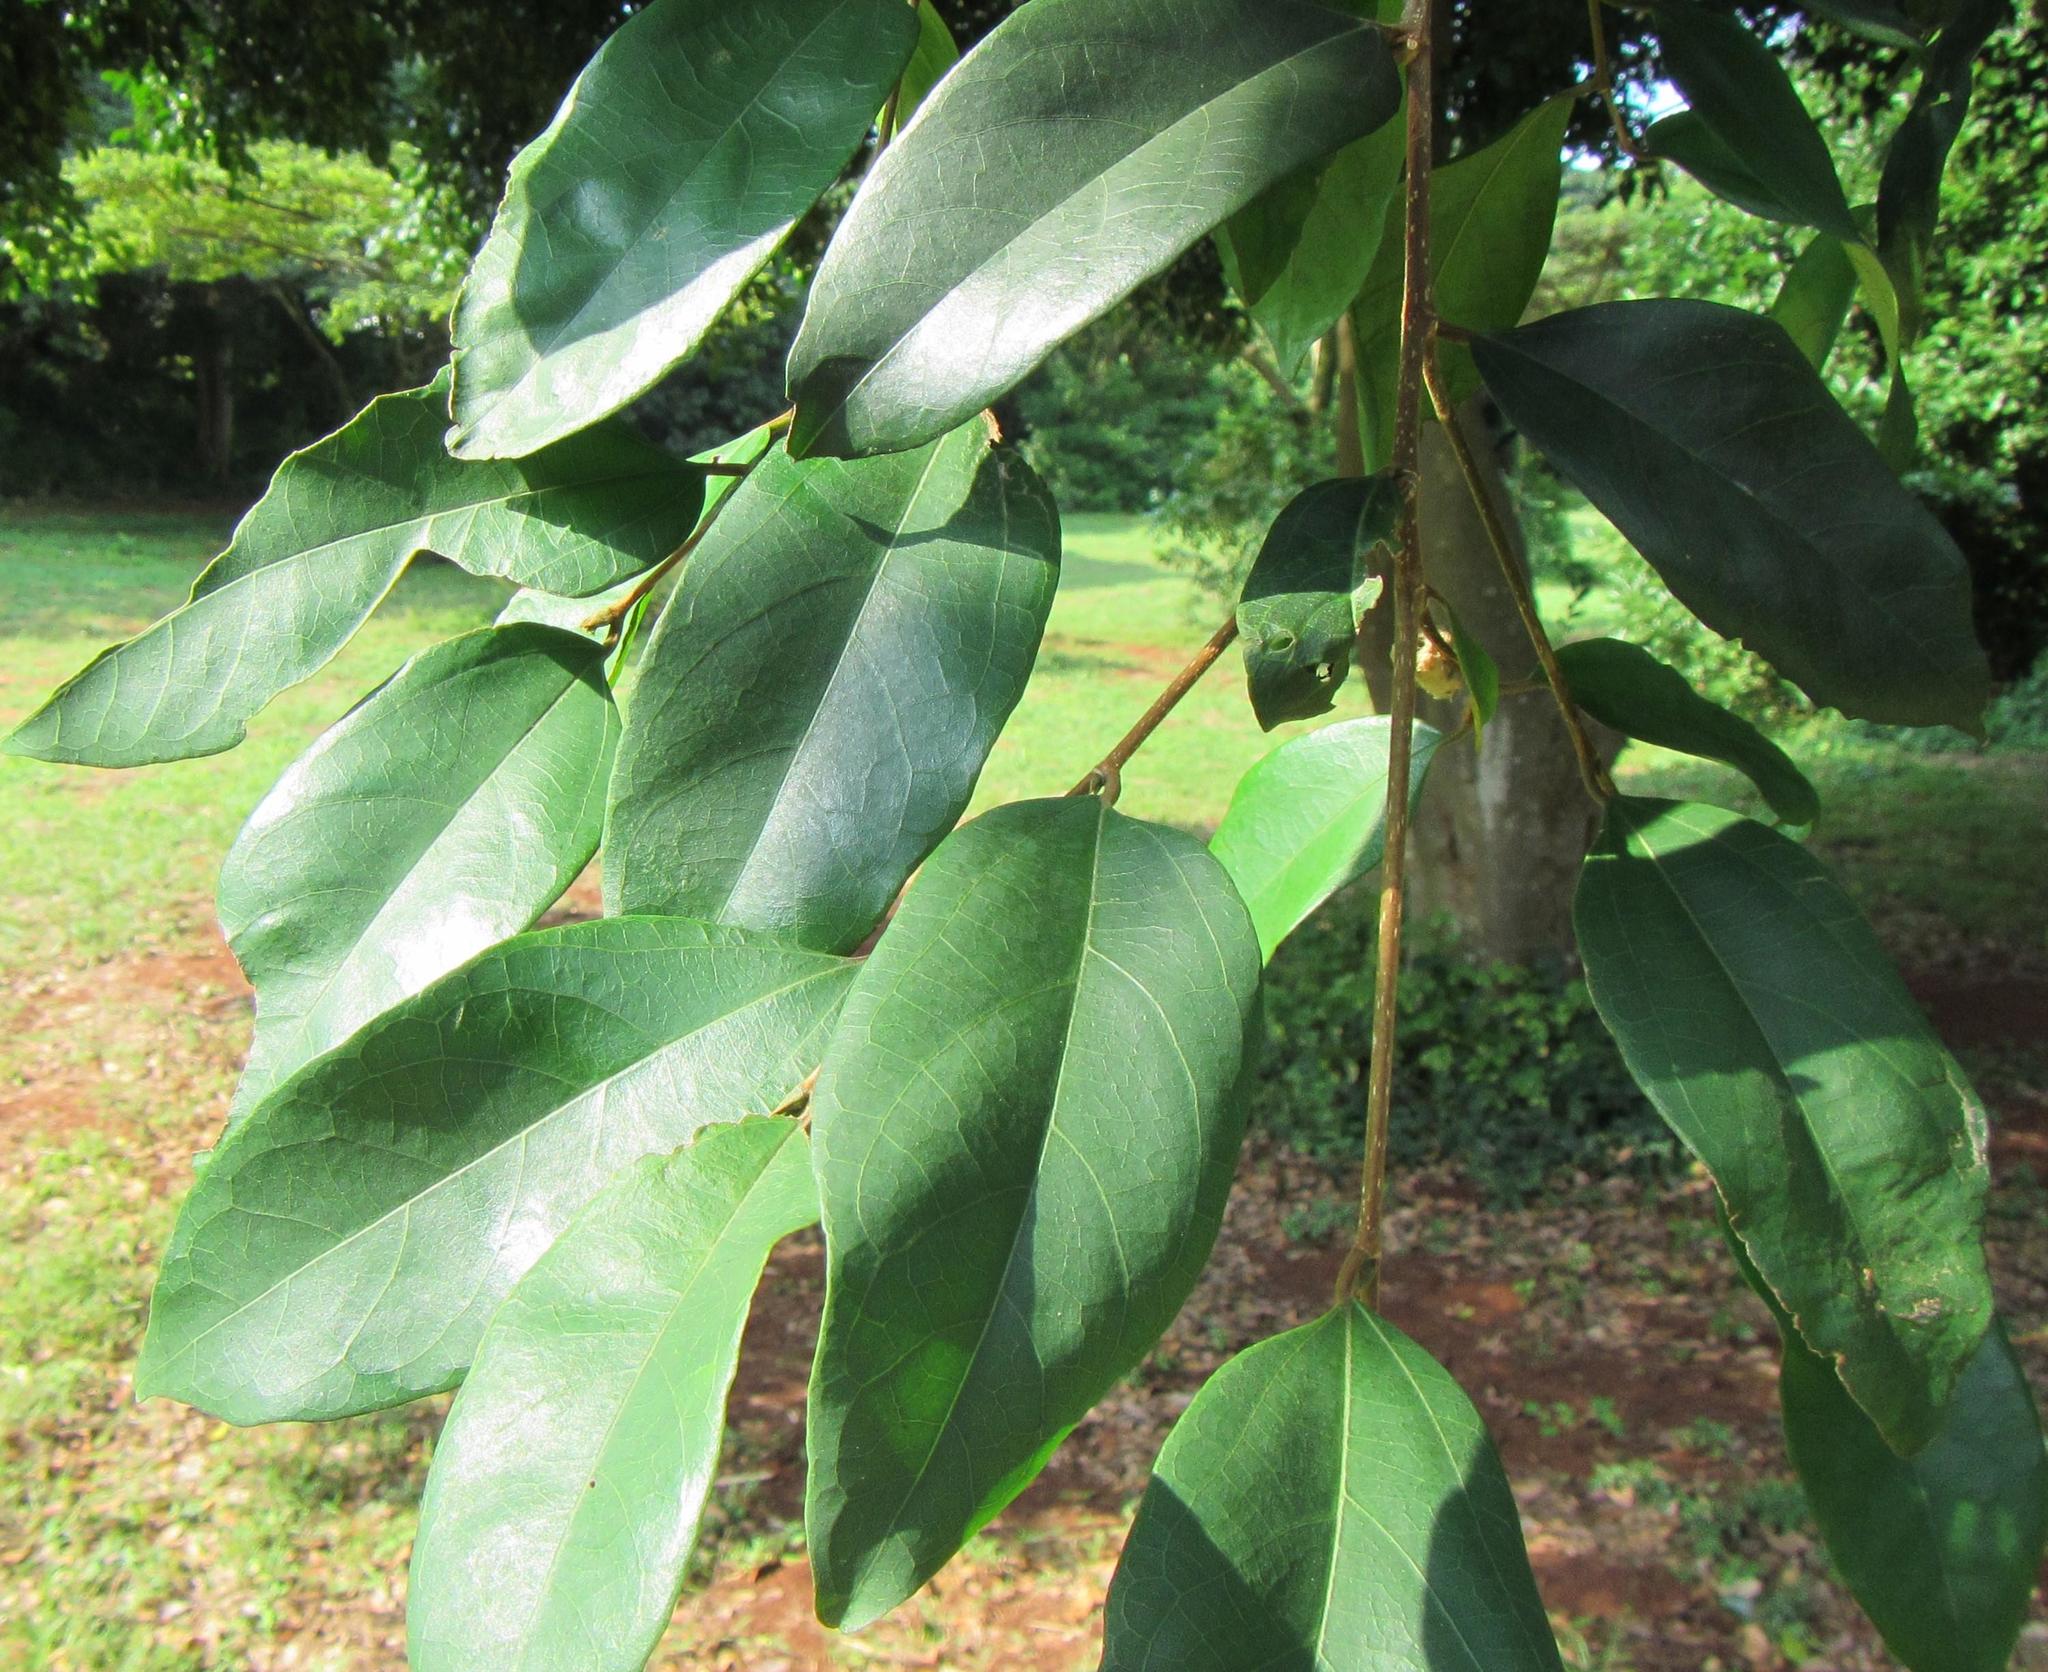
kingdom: Plantae
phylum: Tracheophyta
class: Magnoliopsida
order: Rosales
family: Cannabaceae
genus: Celtis
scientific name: Celtis mildbraedii
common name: Red-fruited stinkwood
